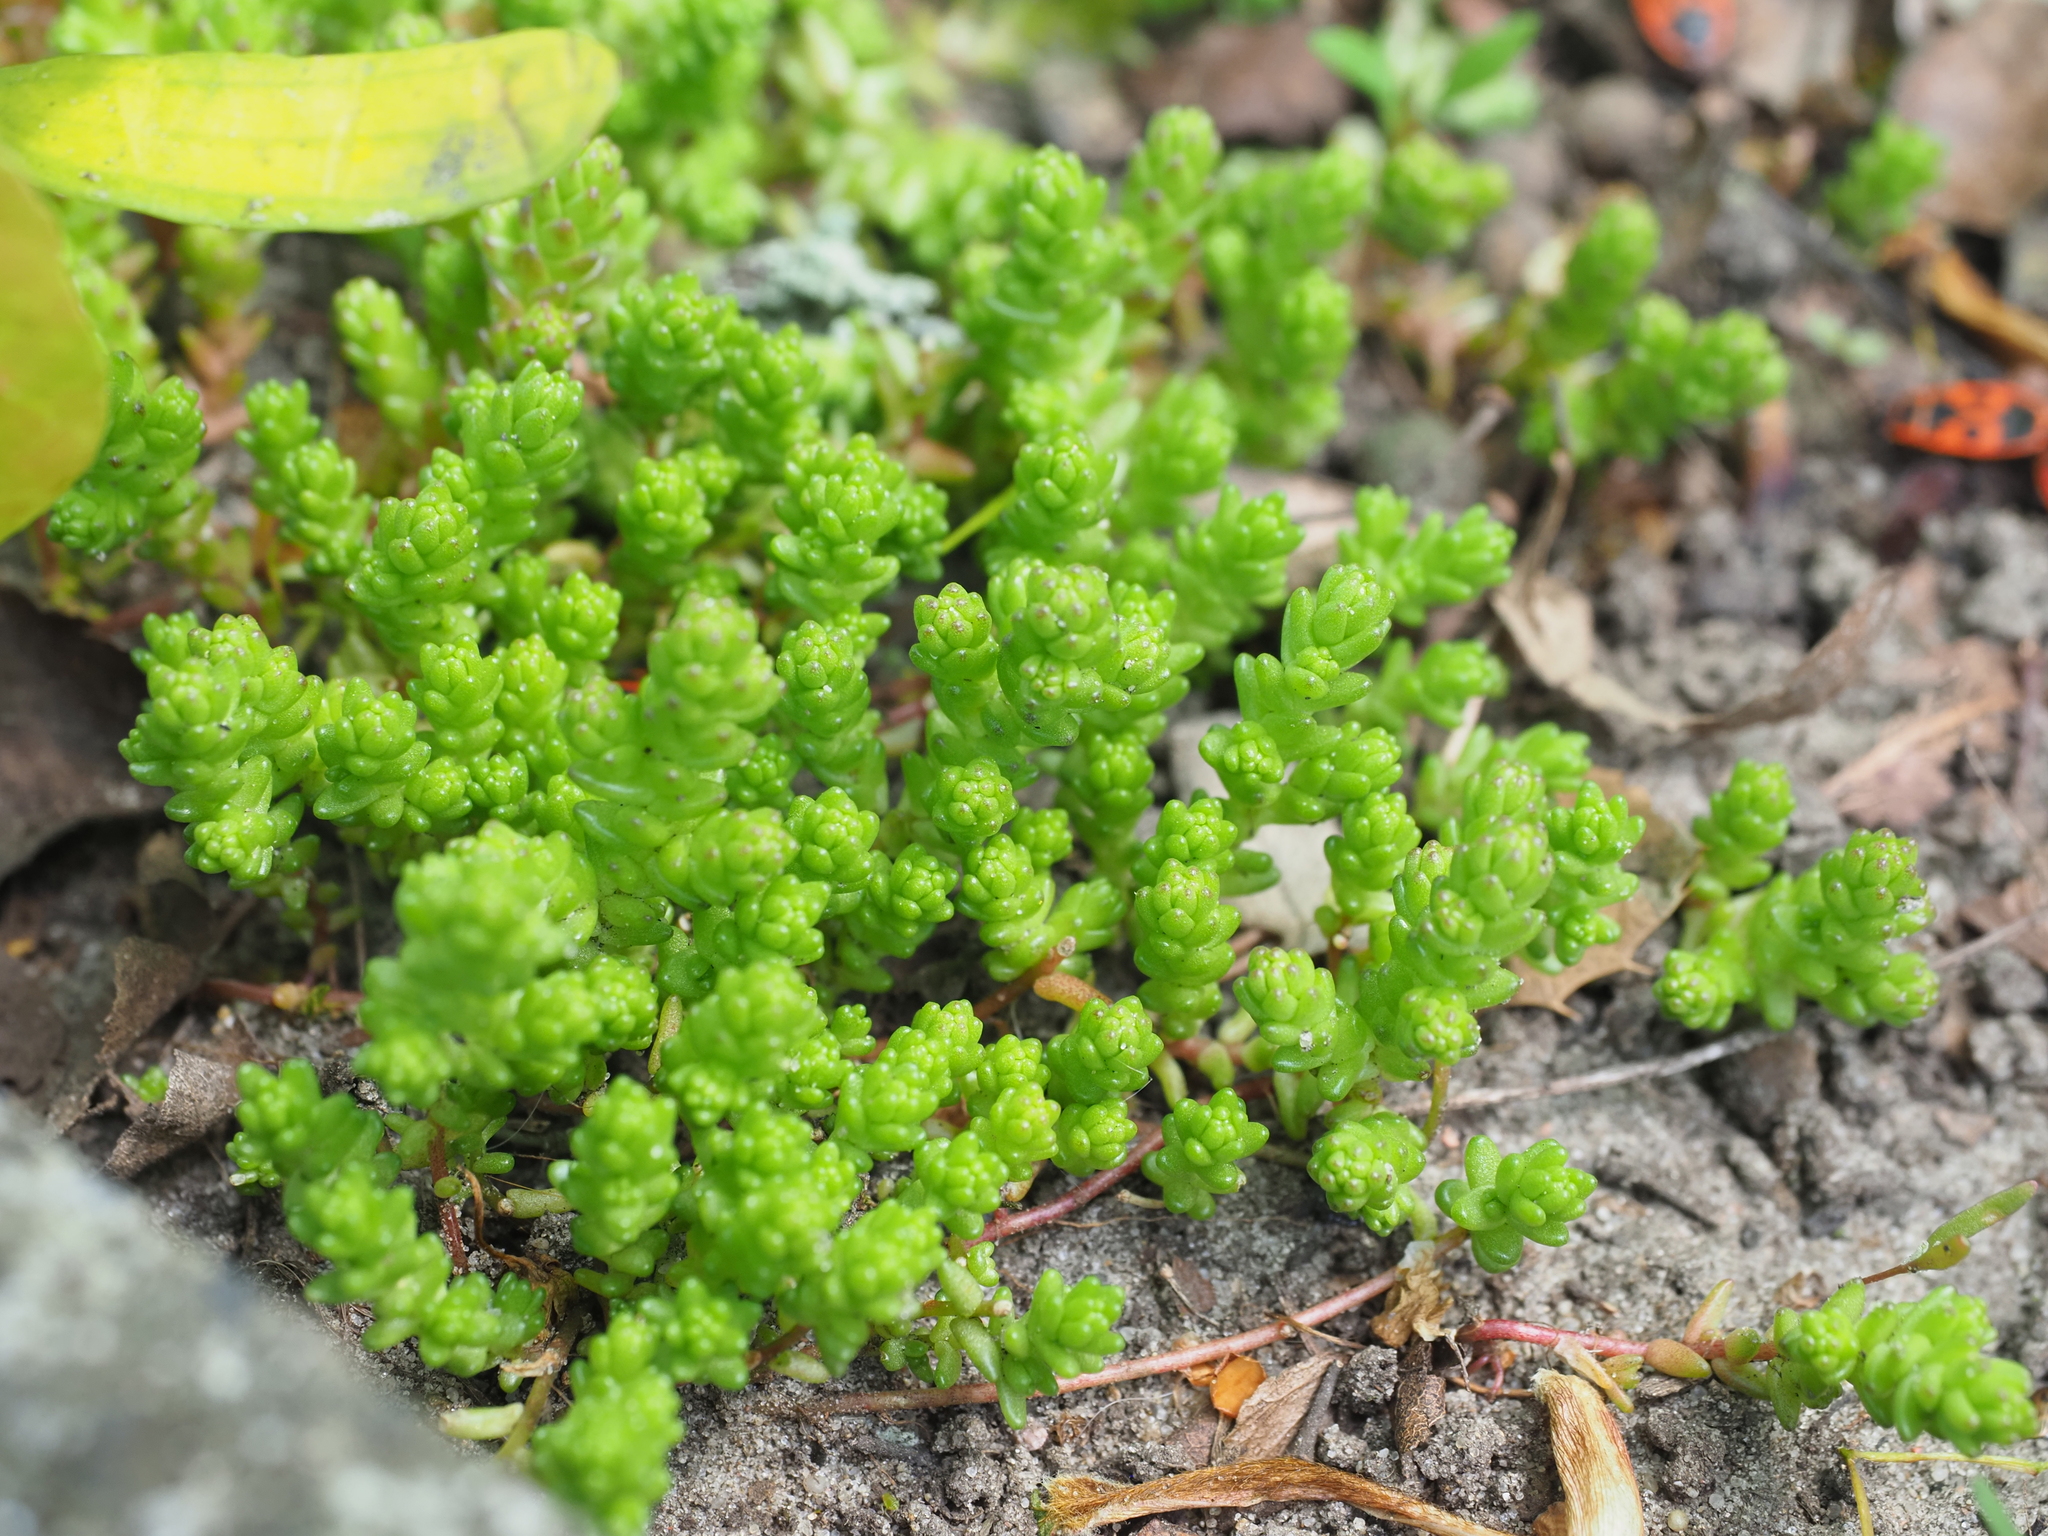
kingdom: Plantae
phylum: Tracheophyta
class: Magnoliopsida
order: Saxifragales
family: Crassulaceae
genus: Sedum
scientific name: Sedum acre
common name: Biting stonecrop
